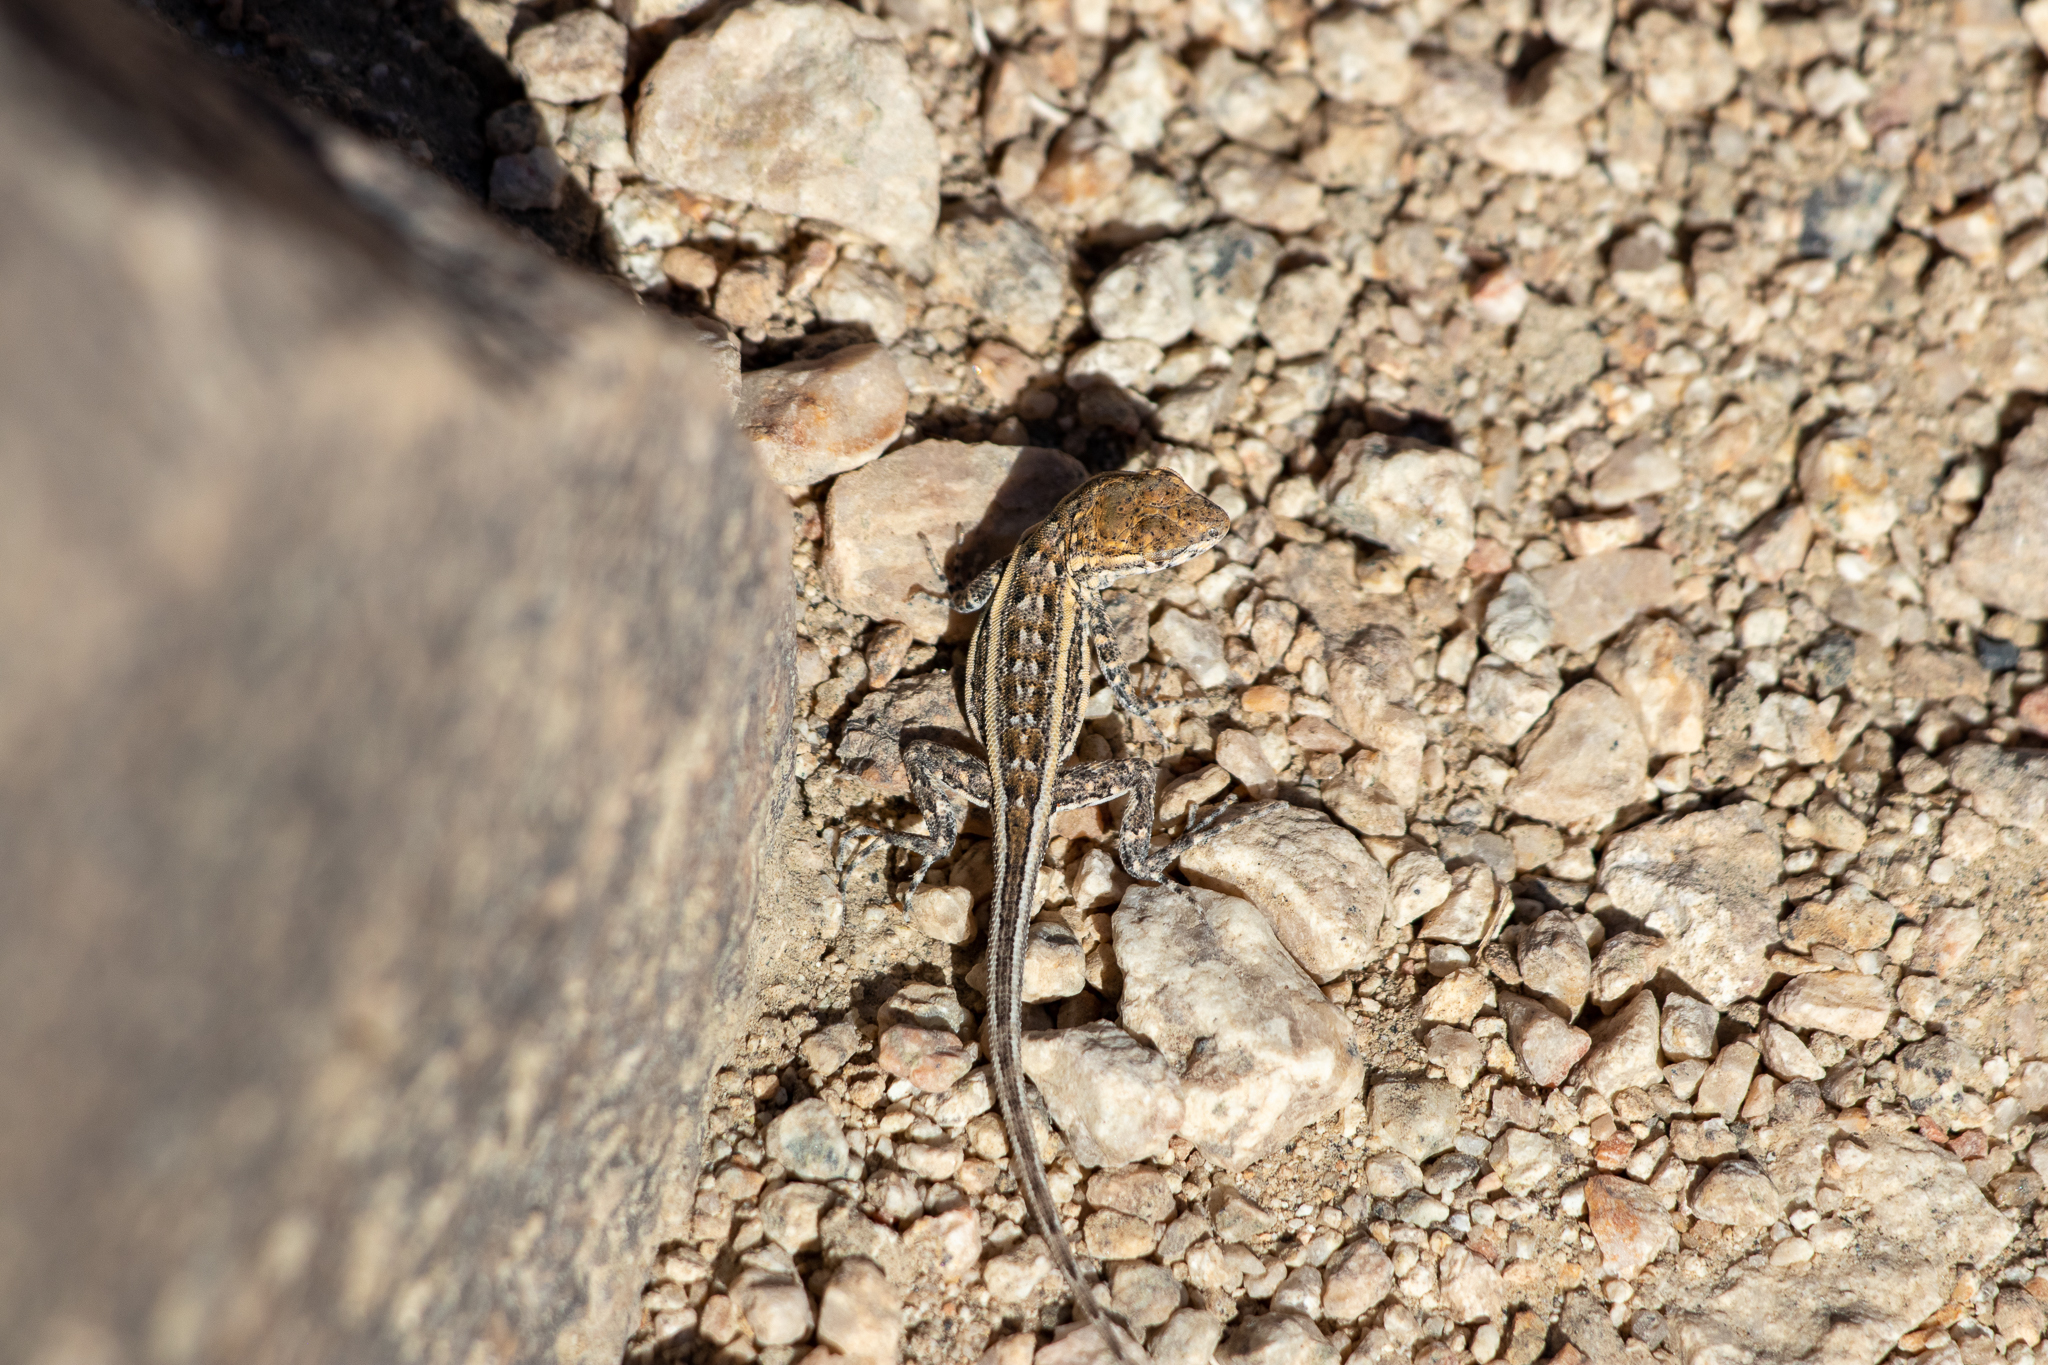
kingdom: Animalia
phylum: Chordata
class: Squamata
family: Phrynosomatidae
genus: Uta
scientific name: Uta stansburiana
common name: Side-blotched lizard
